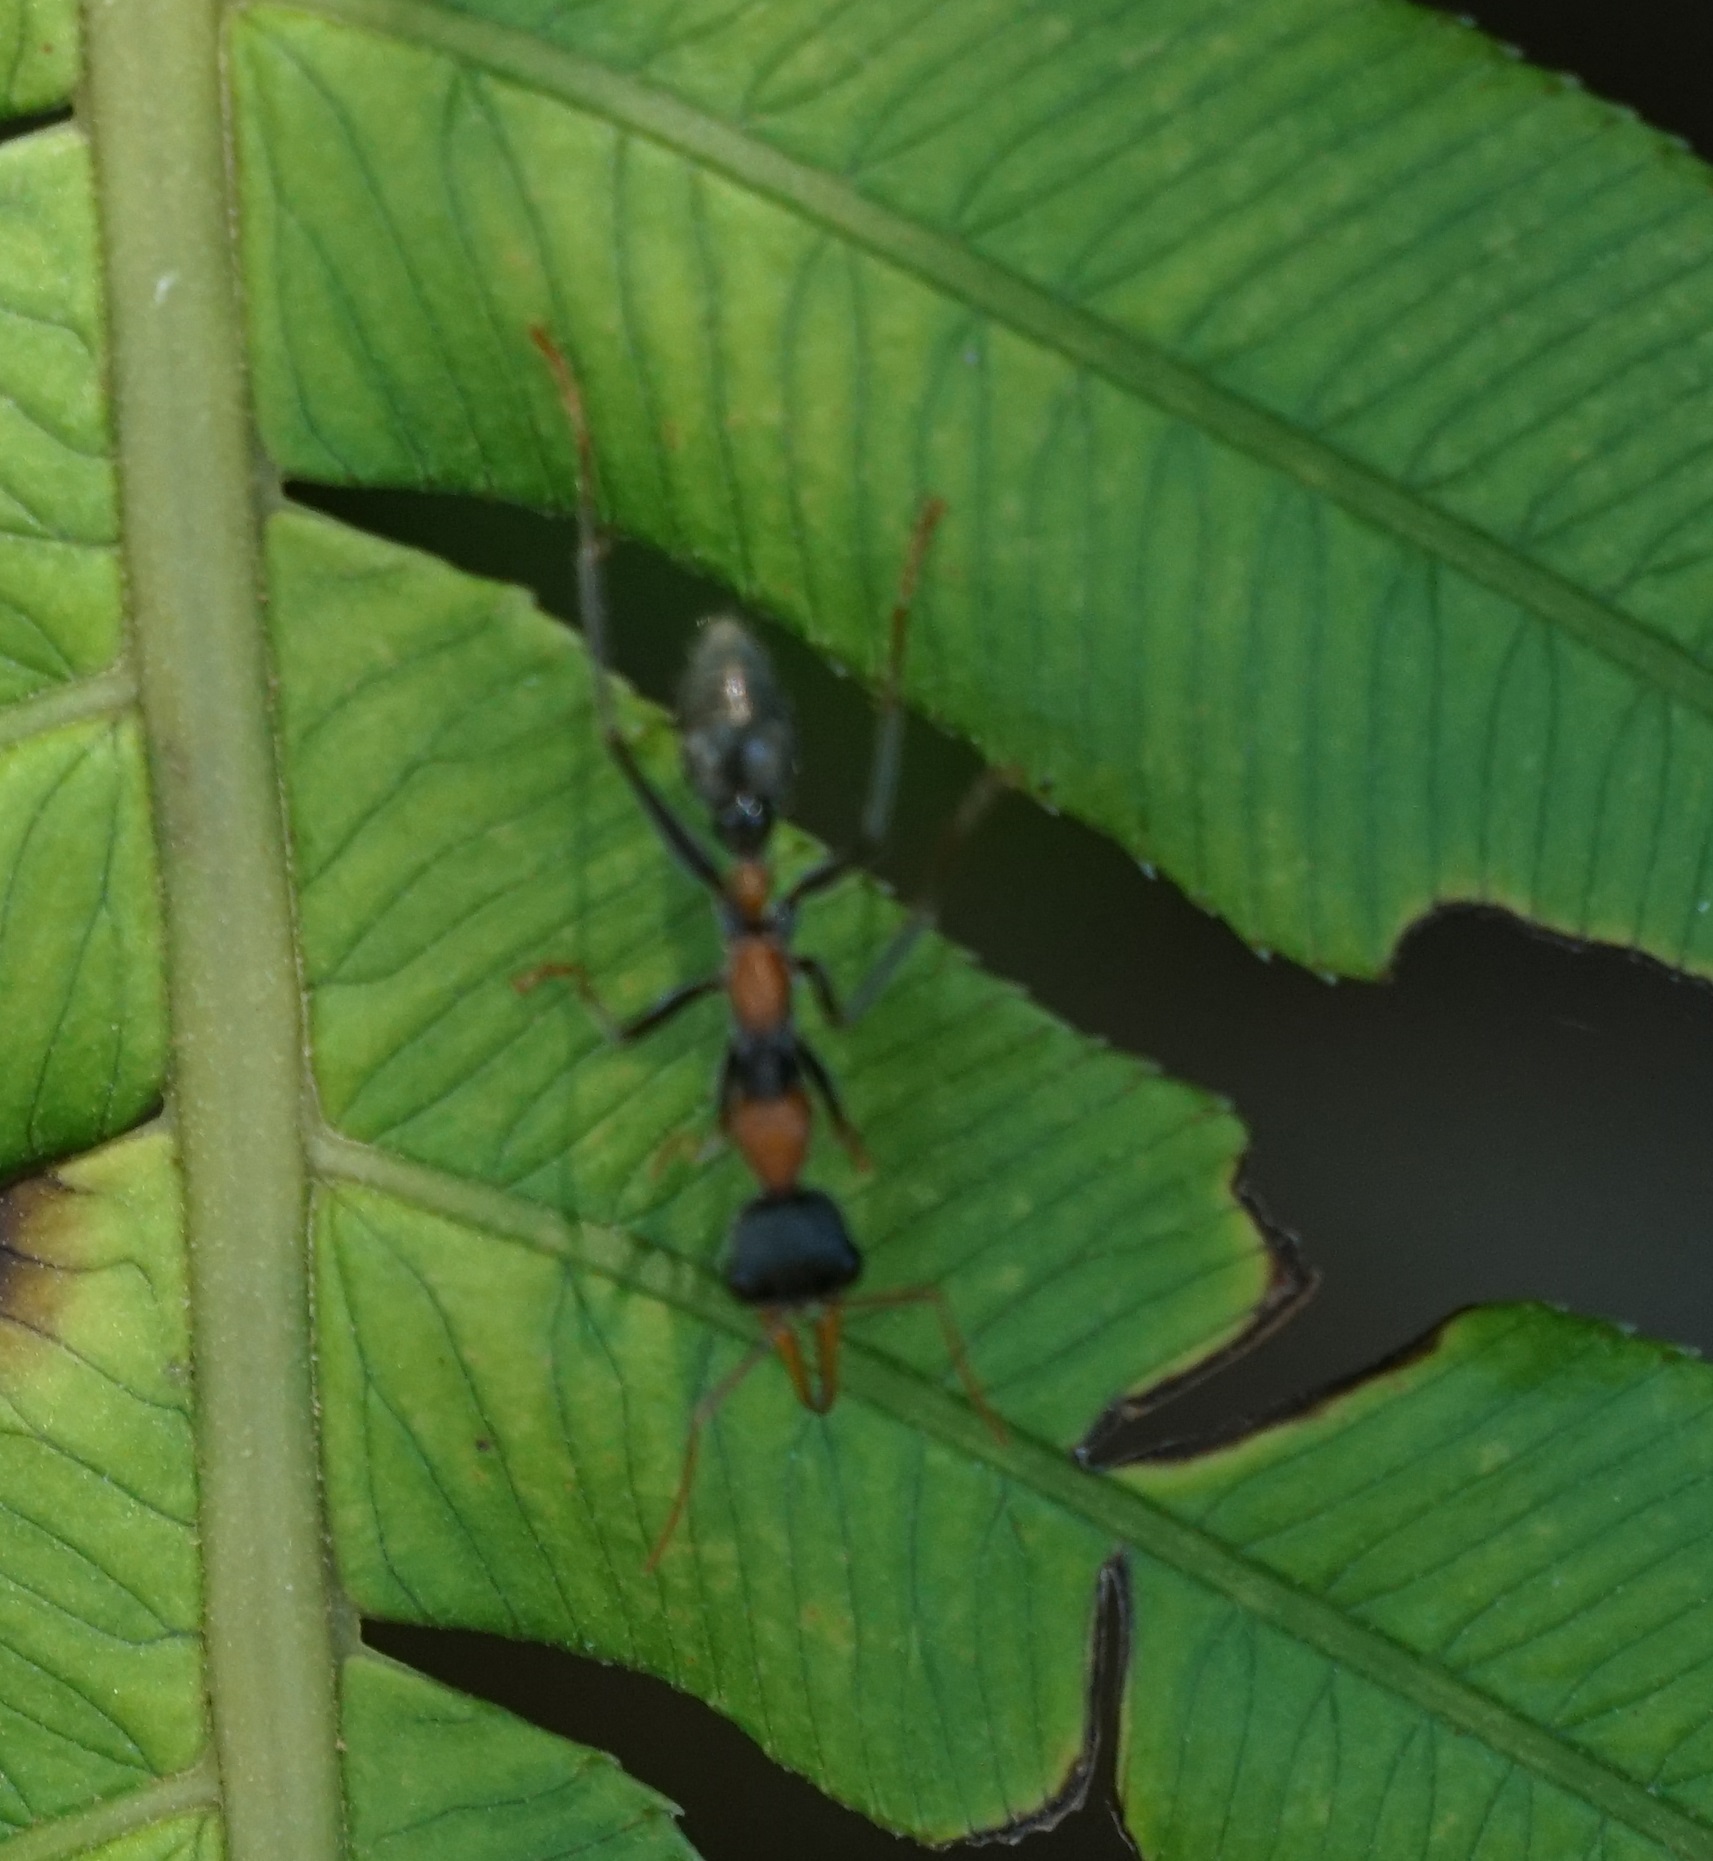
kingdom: Animalia
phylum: Arthropoda
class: Insecta
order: Hymenoptera
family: Formicidae
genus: Myrmecia
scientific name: Myrmecia nigrocincta
